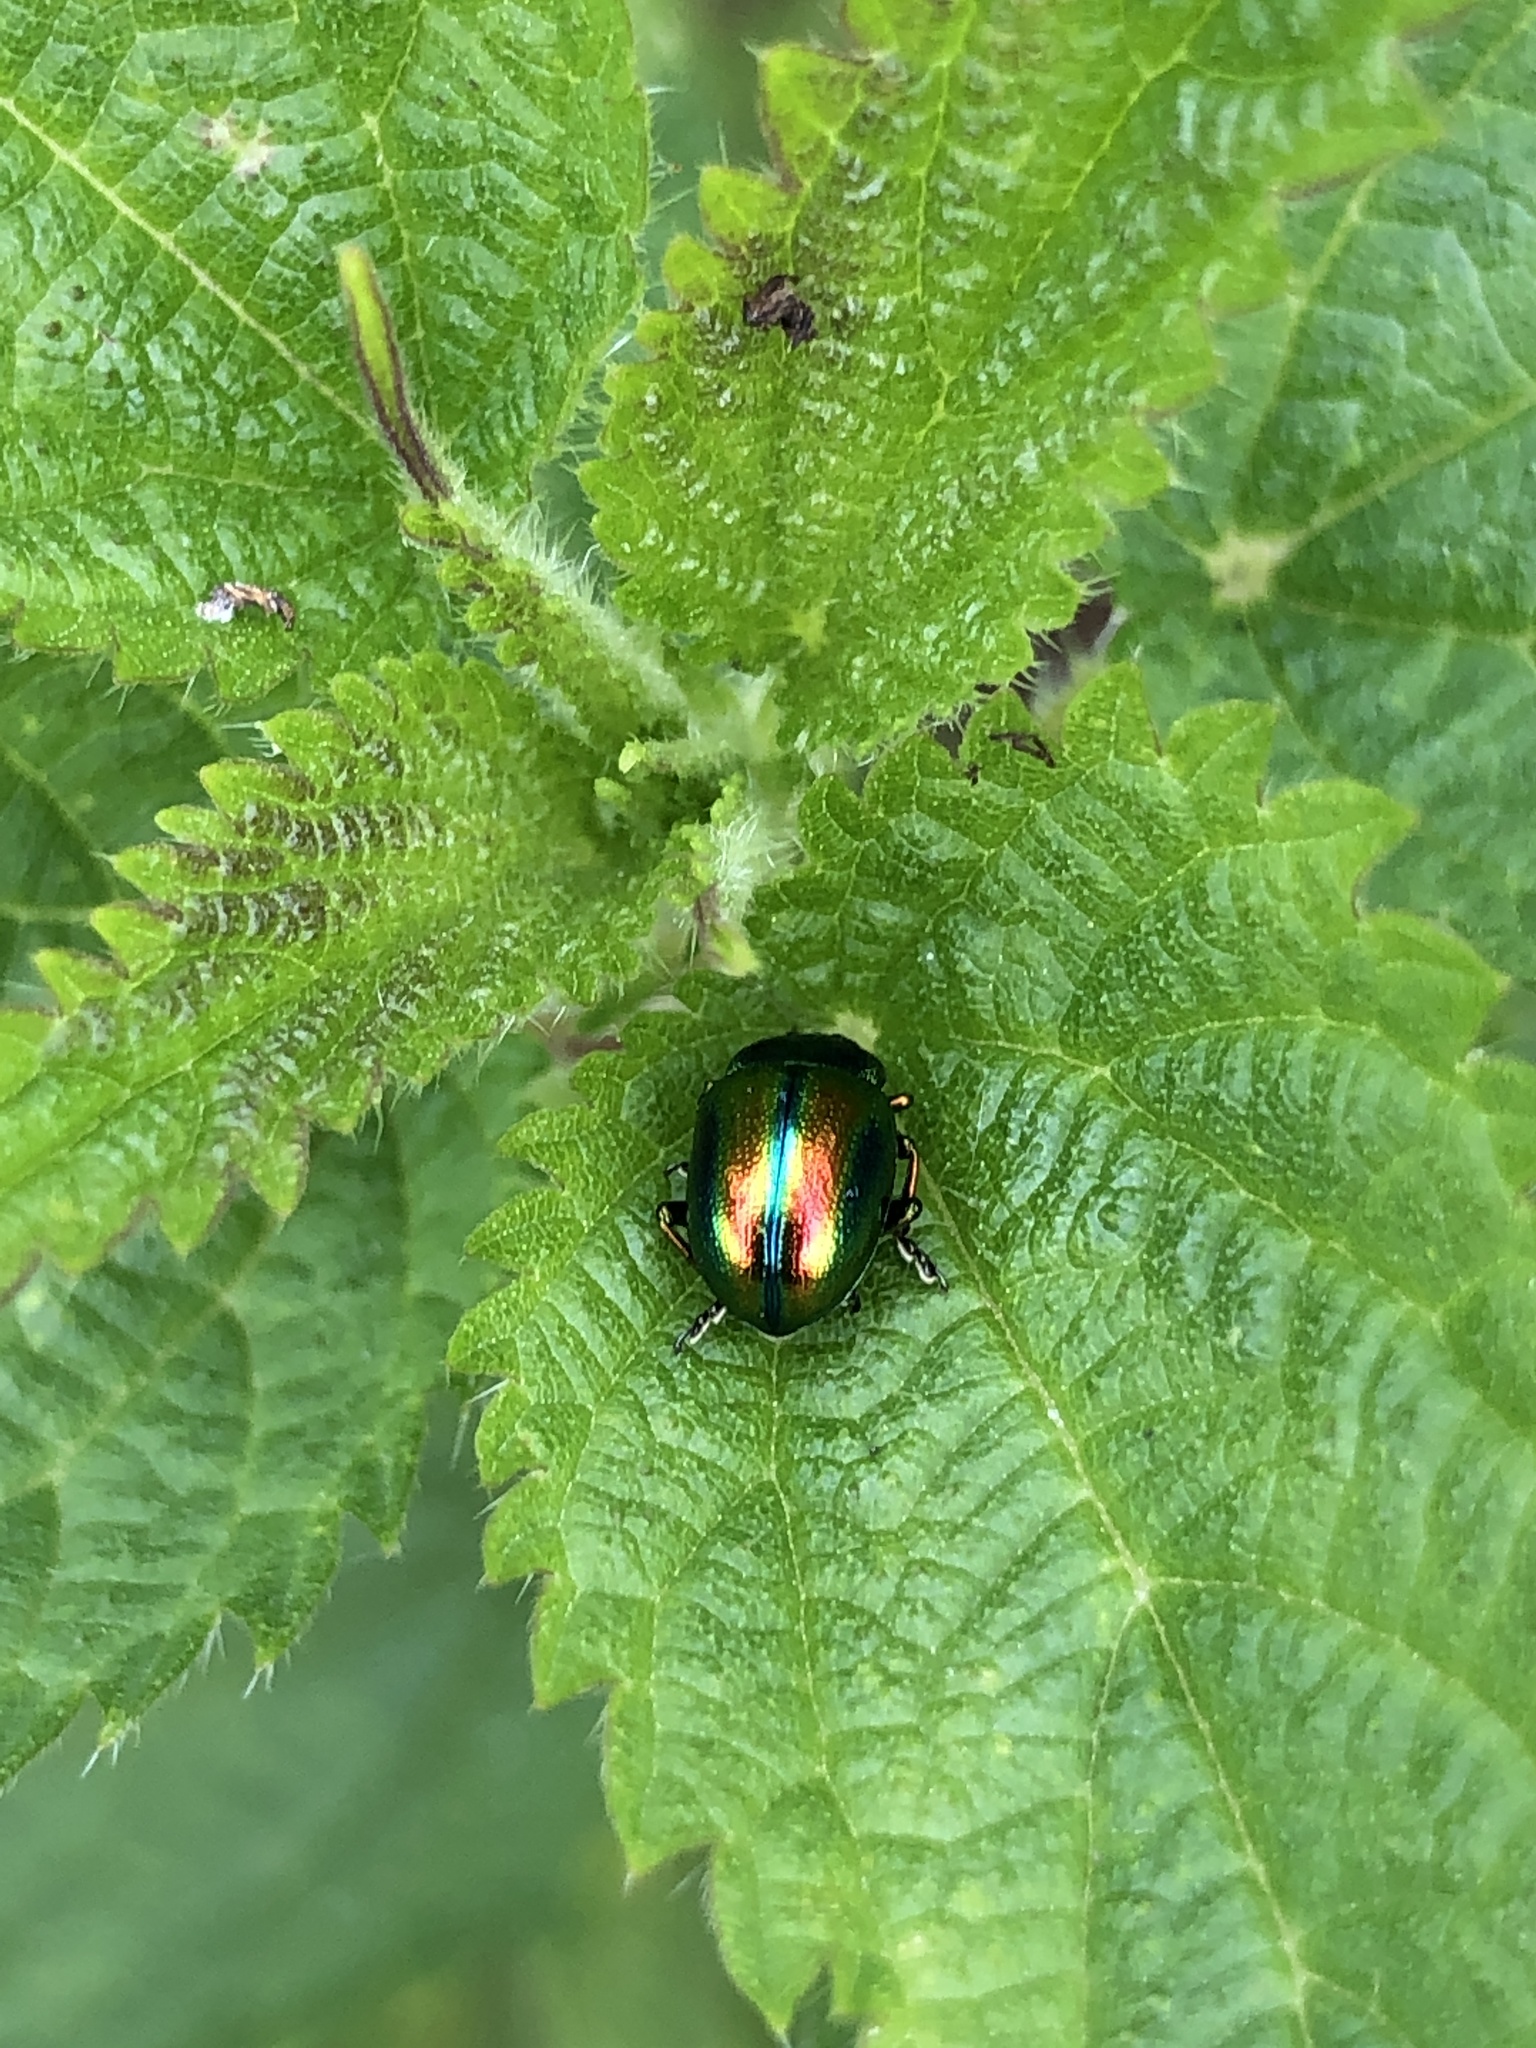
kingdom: Animalia
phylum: Arthropoda
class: Insecta
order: Coleoptera
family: Chrysomelidae
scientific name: Chrysomelidae
